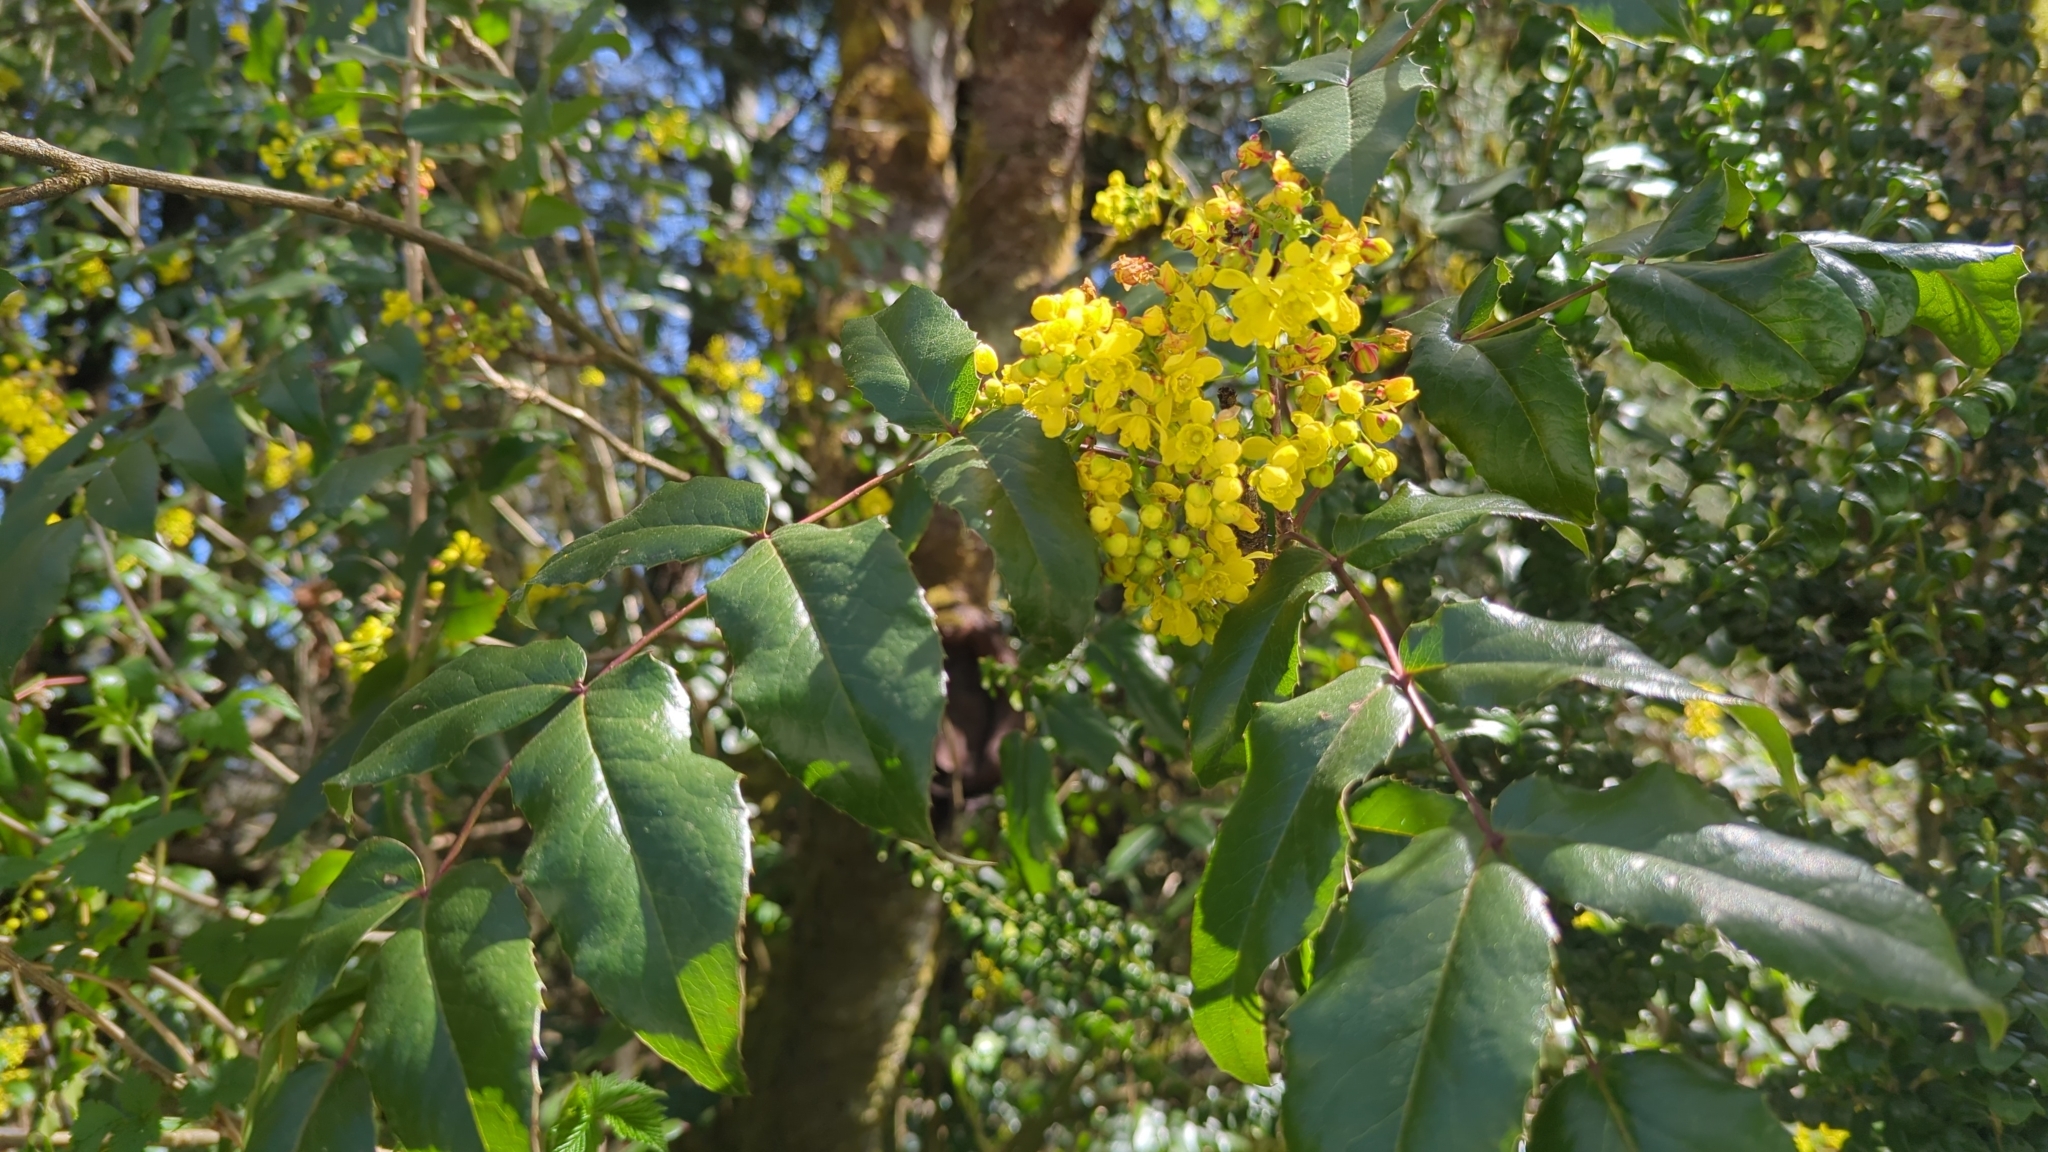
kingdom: Plantae
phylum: Tracheophyta
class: Magnoliopsida
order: Ranunculales
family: Berberidaceae
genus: Mahonia
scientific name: Mahonia aquifolium
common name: Oregon-grape
